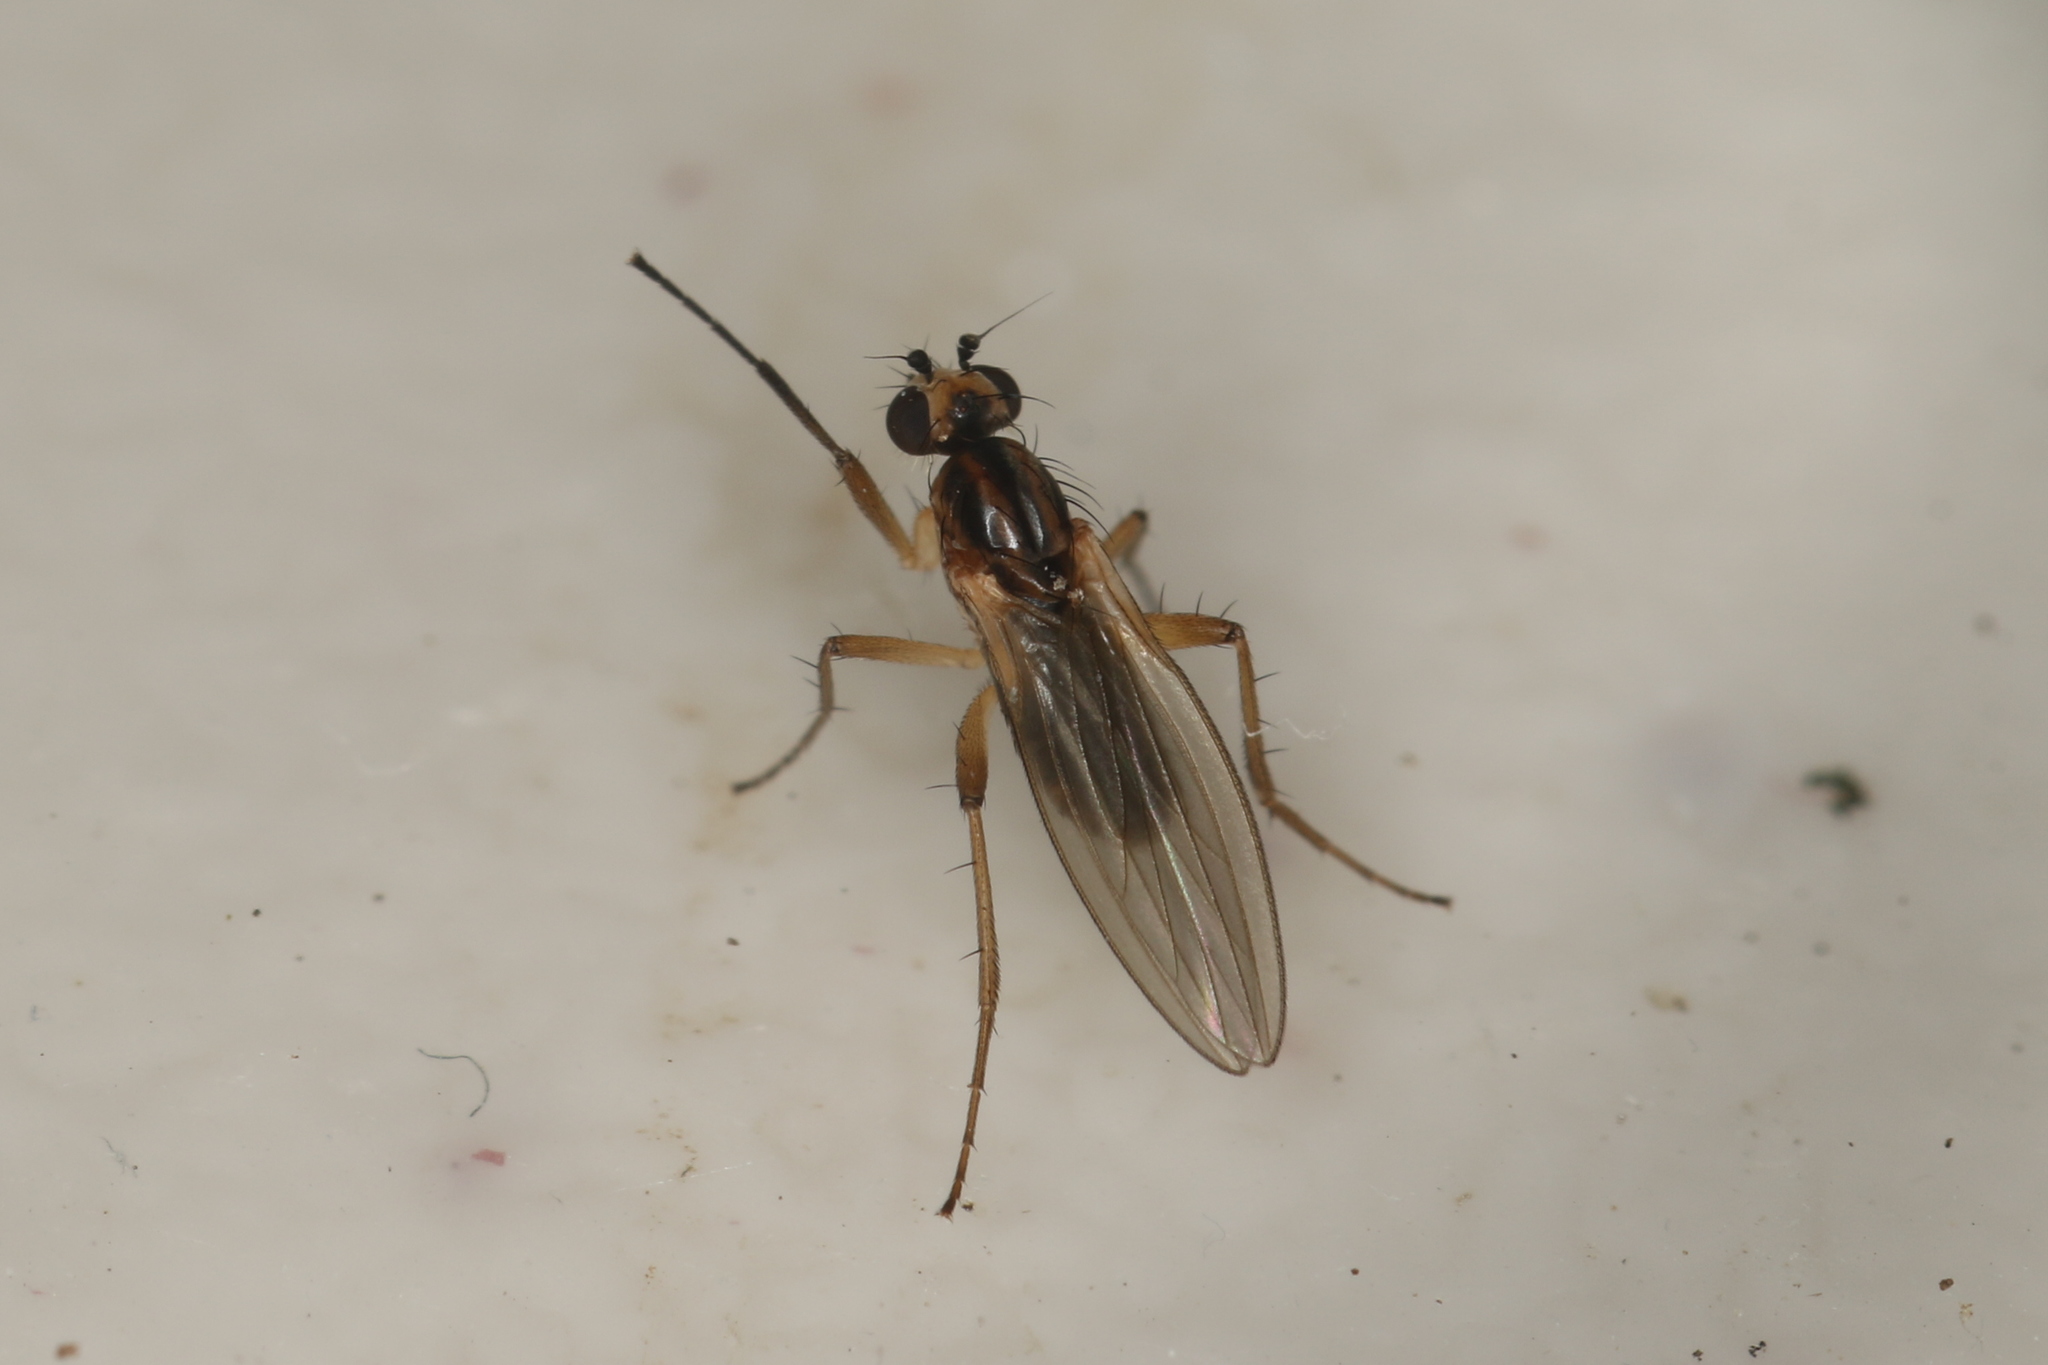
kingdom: Animalia
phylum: Arthropoda
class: Insecta
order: Diptera
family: Lonchopteridae
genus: Lonchoptera
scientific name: Lonchoptera lutea
